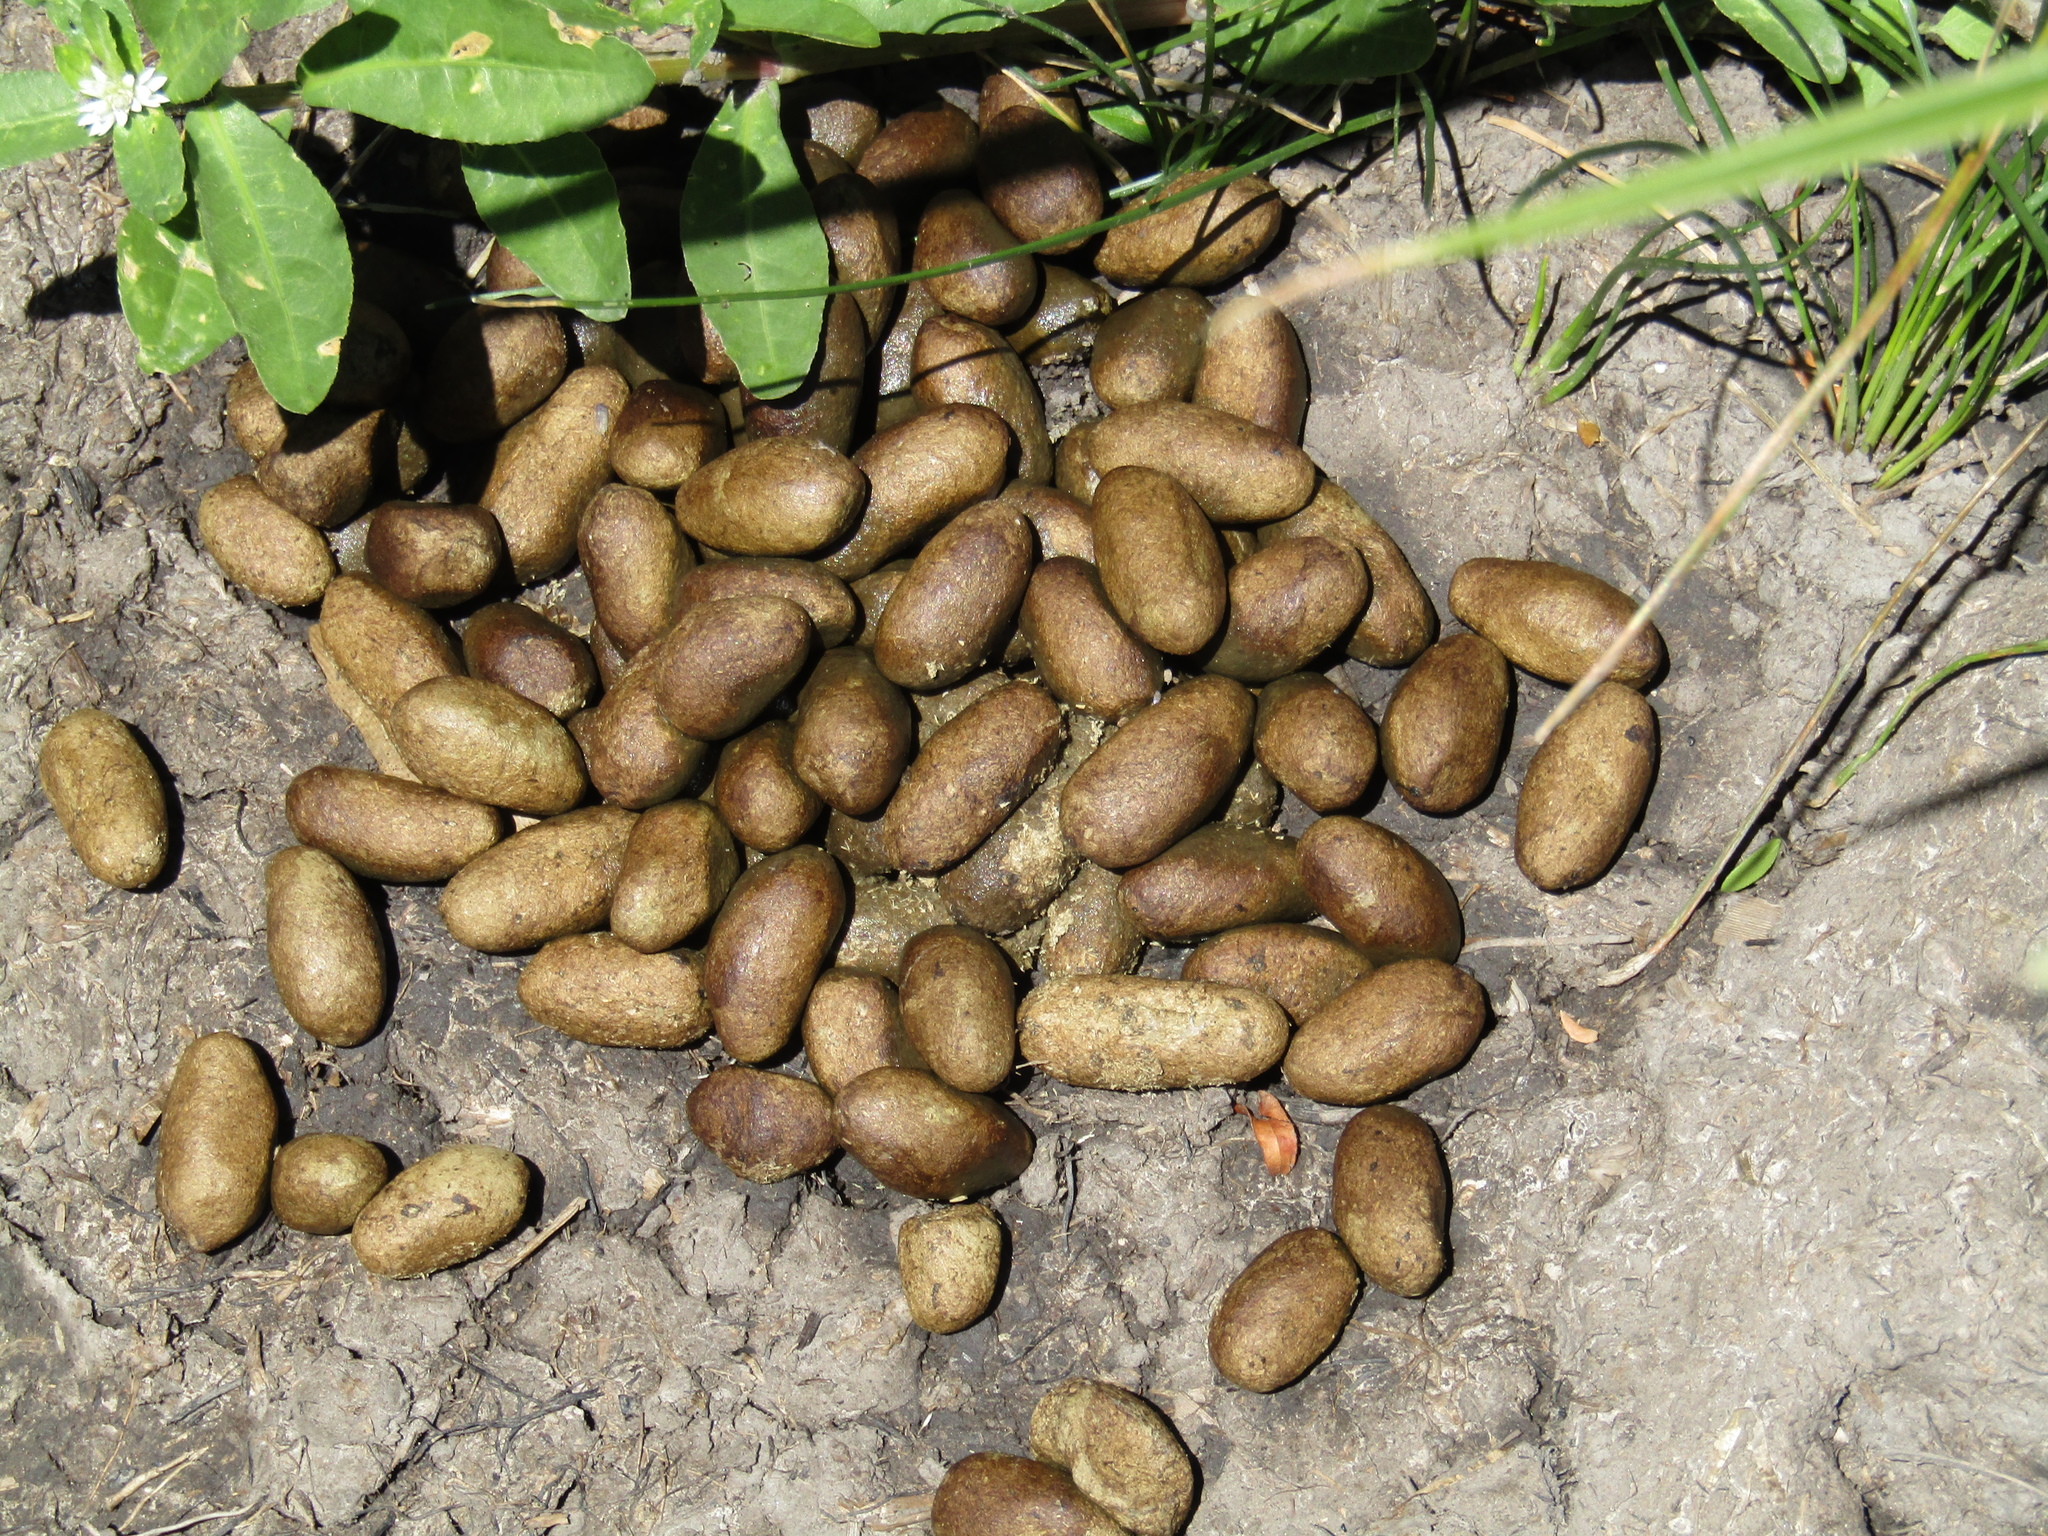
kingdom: Animalia
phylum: Chordata
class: Mammalia
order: Rodentia
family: Caviidae
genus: Hydrochoerus
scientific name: Hydrochoerus hydrochaeris
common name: Capybara
